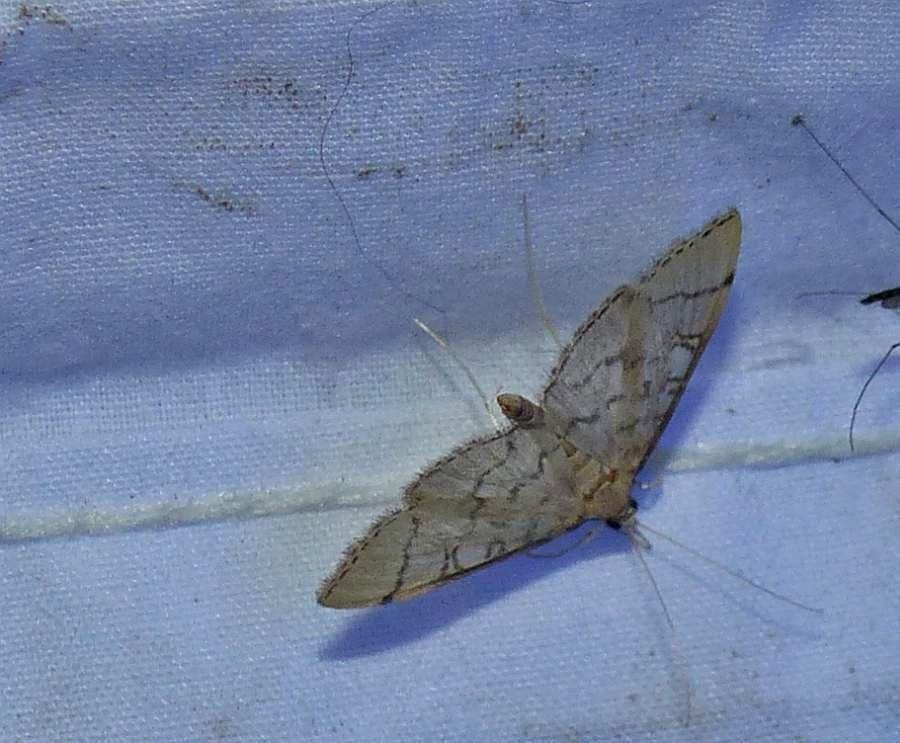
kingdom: Animalia
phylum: Arthropoda
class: Insecta
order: Lepidoptera
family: Crambidae
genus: Lamprosema
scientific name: Lamprosema Blepharomastix ranalis
